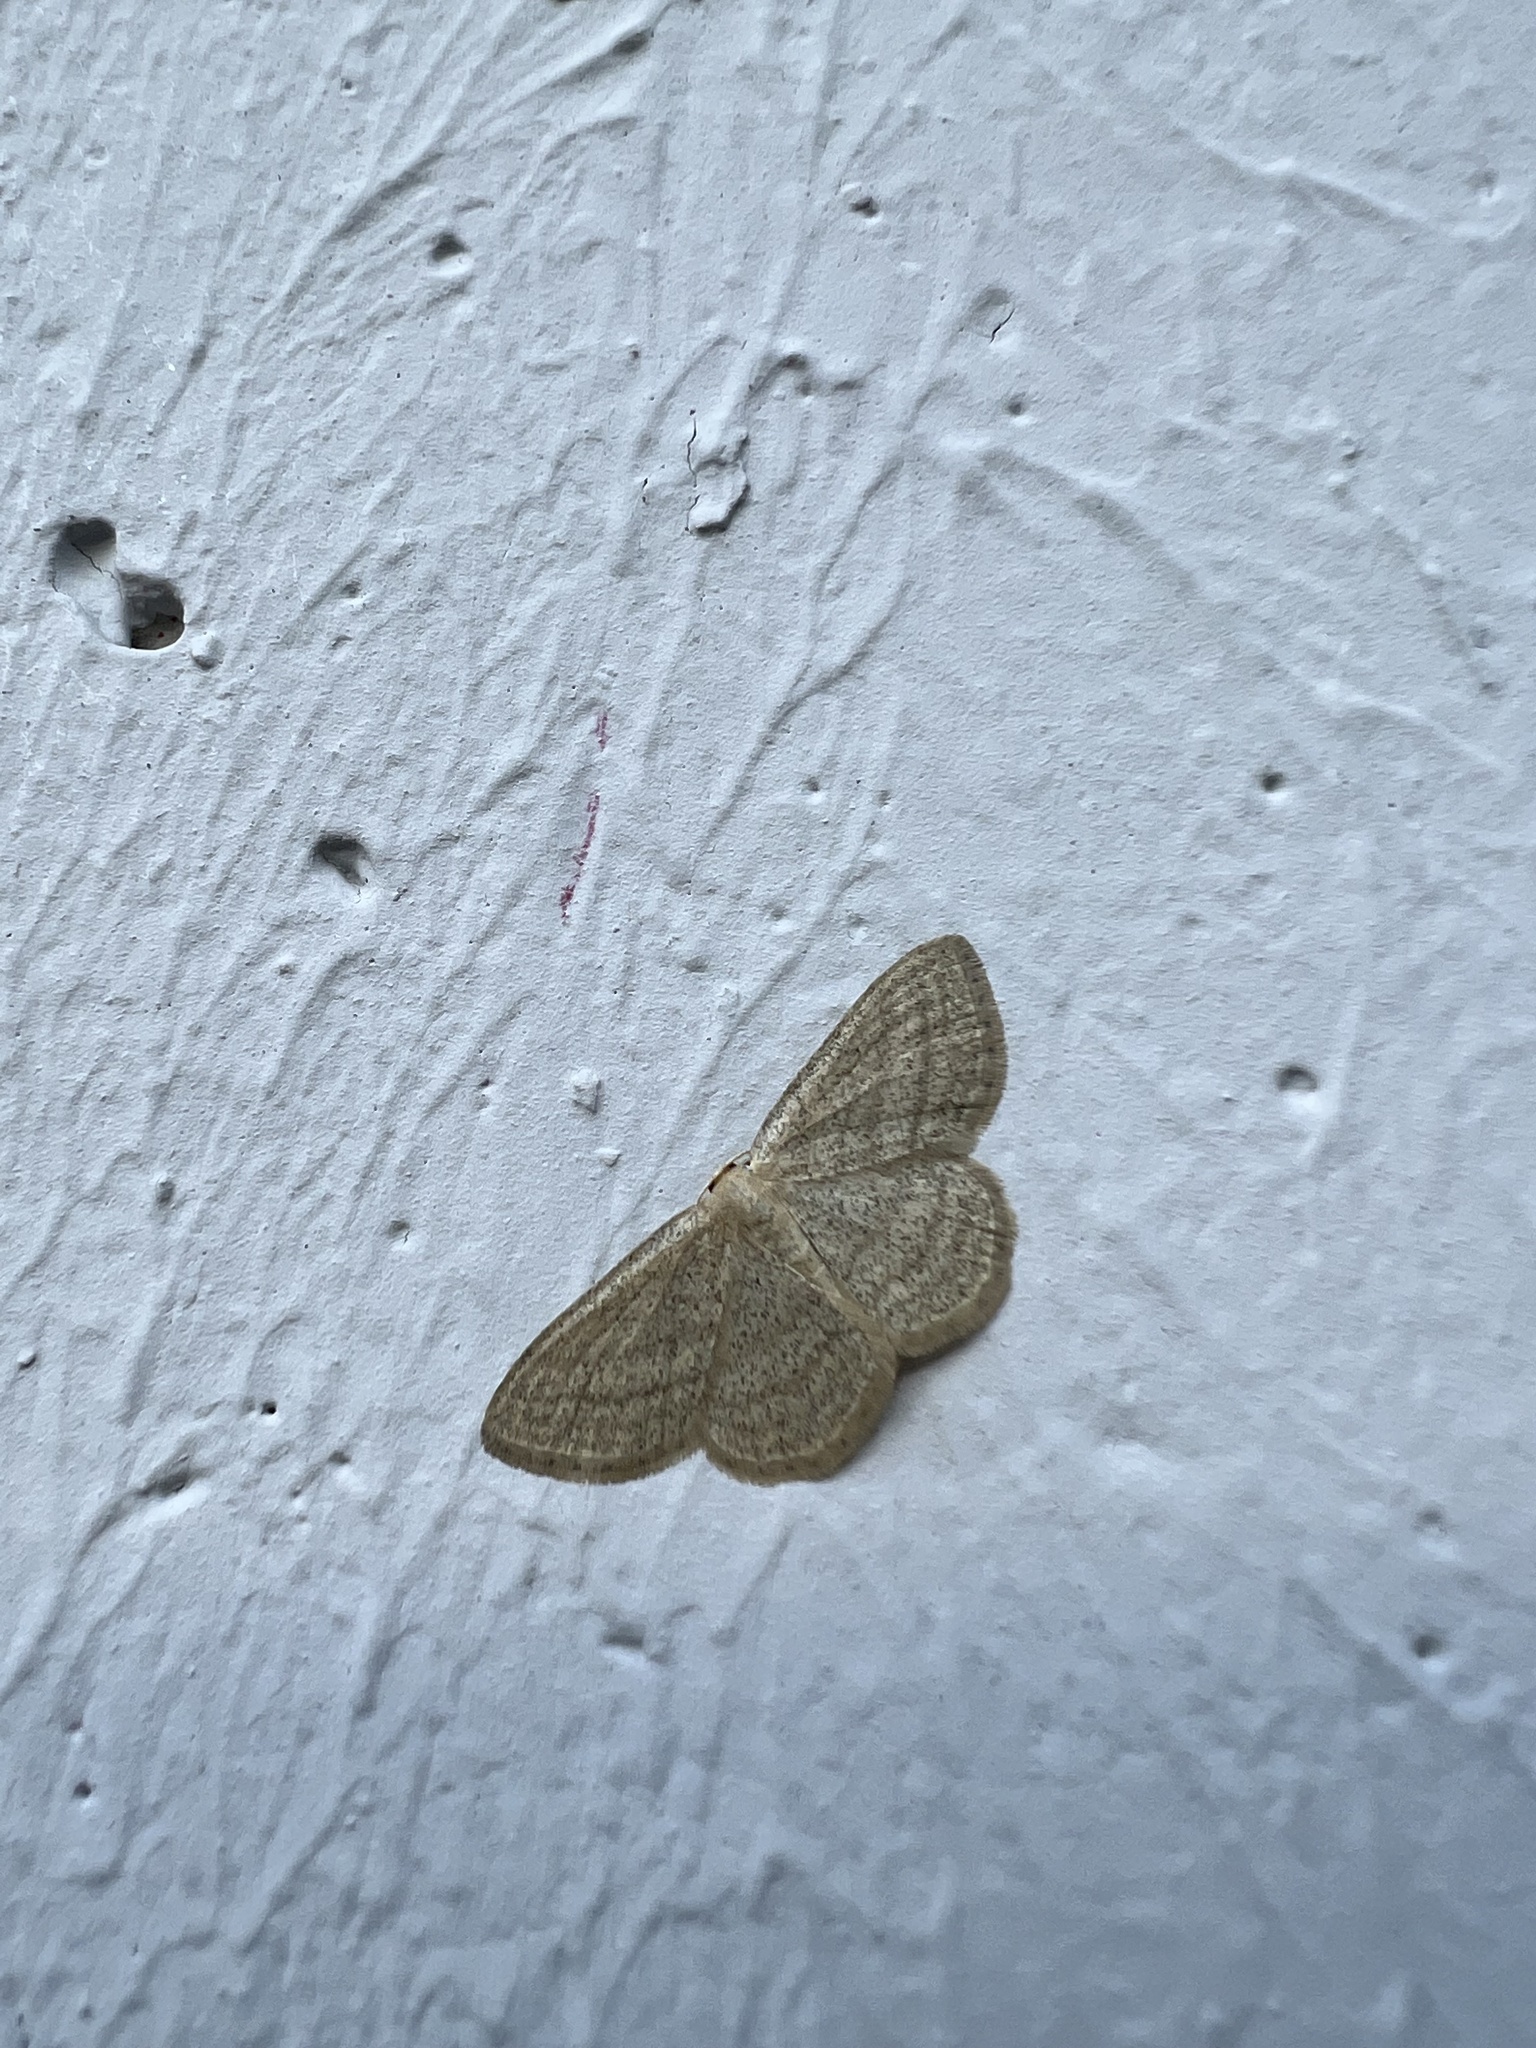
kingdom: Animalia
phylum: Arthropoda
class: Insecta
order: Lepidoptera
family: Geometridae
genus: Scopula
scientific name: Scopula virgulata
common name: Streaked wave
